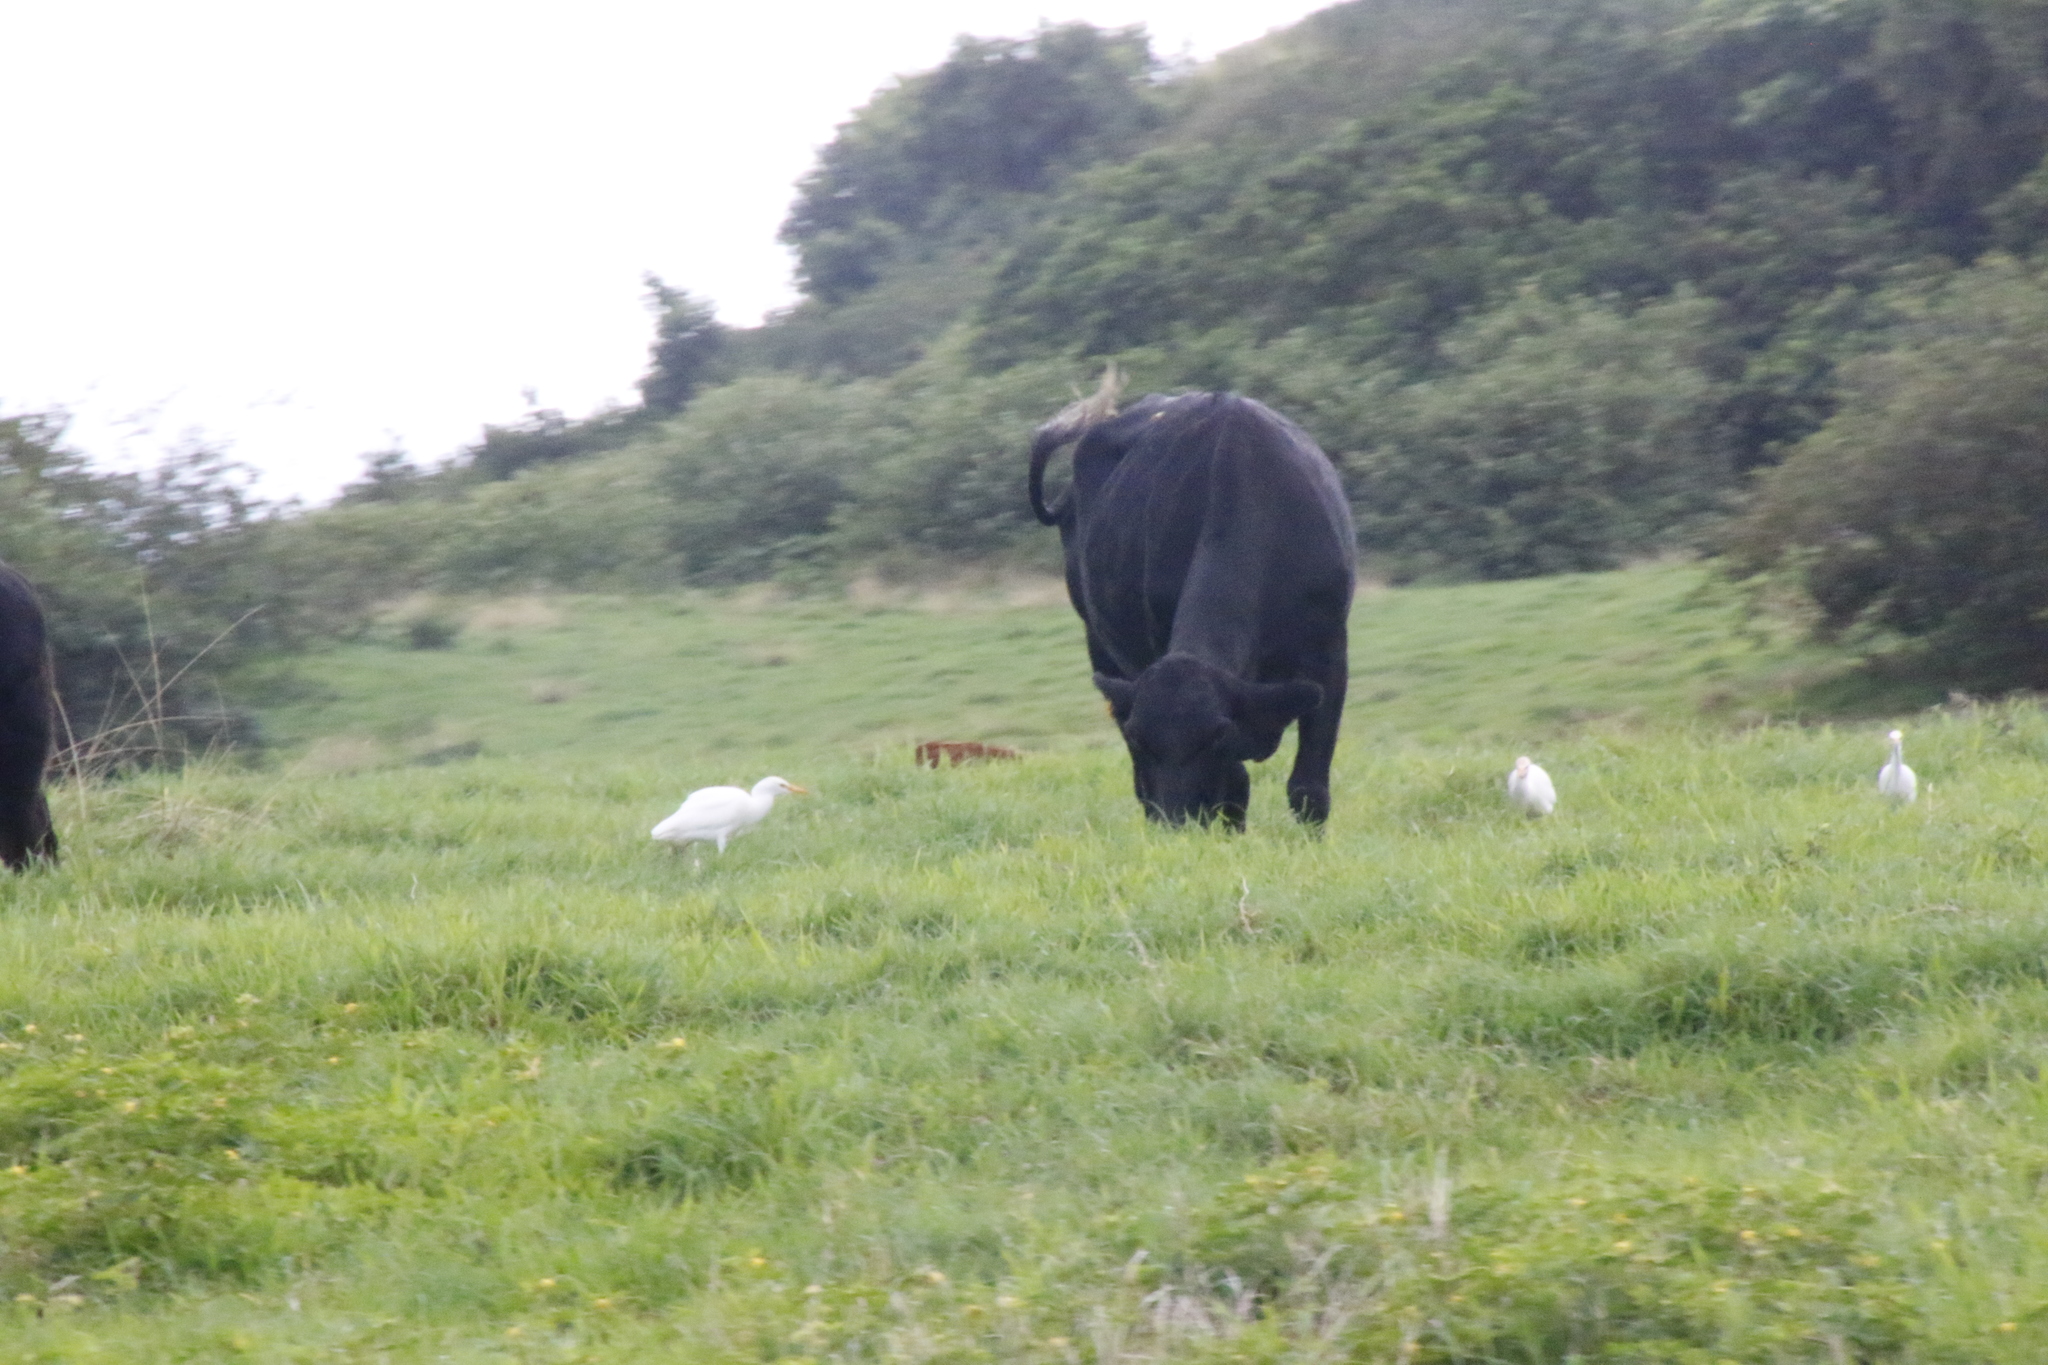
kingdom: Animalia
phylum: Chordata
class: Aves
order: Pelecaniformes
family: Ardeidae
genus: Bubulcus
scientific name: Bubulcus ibis
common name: Cattle egret
